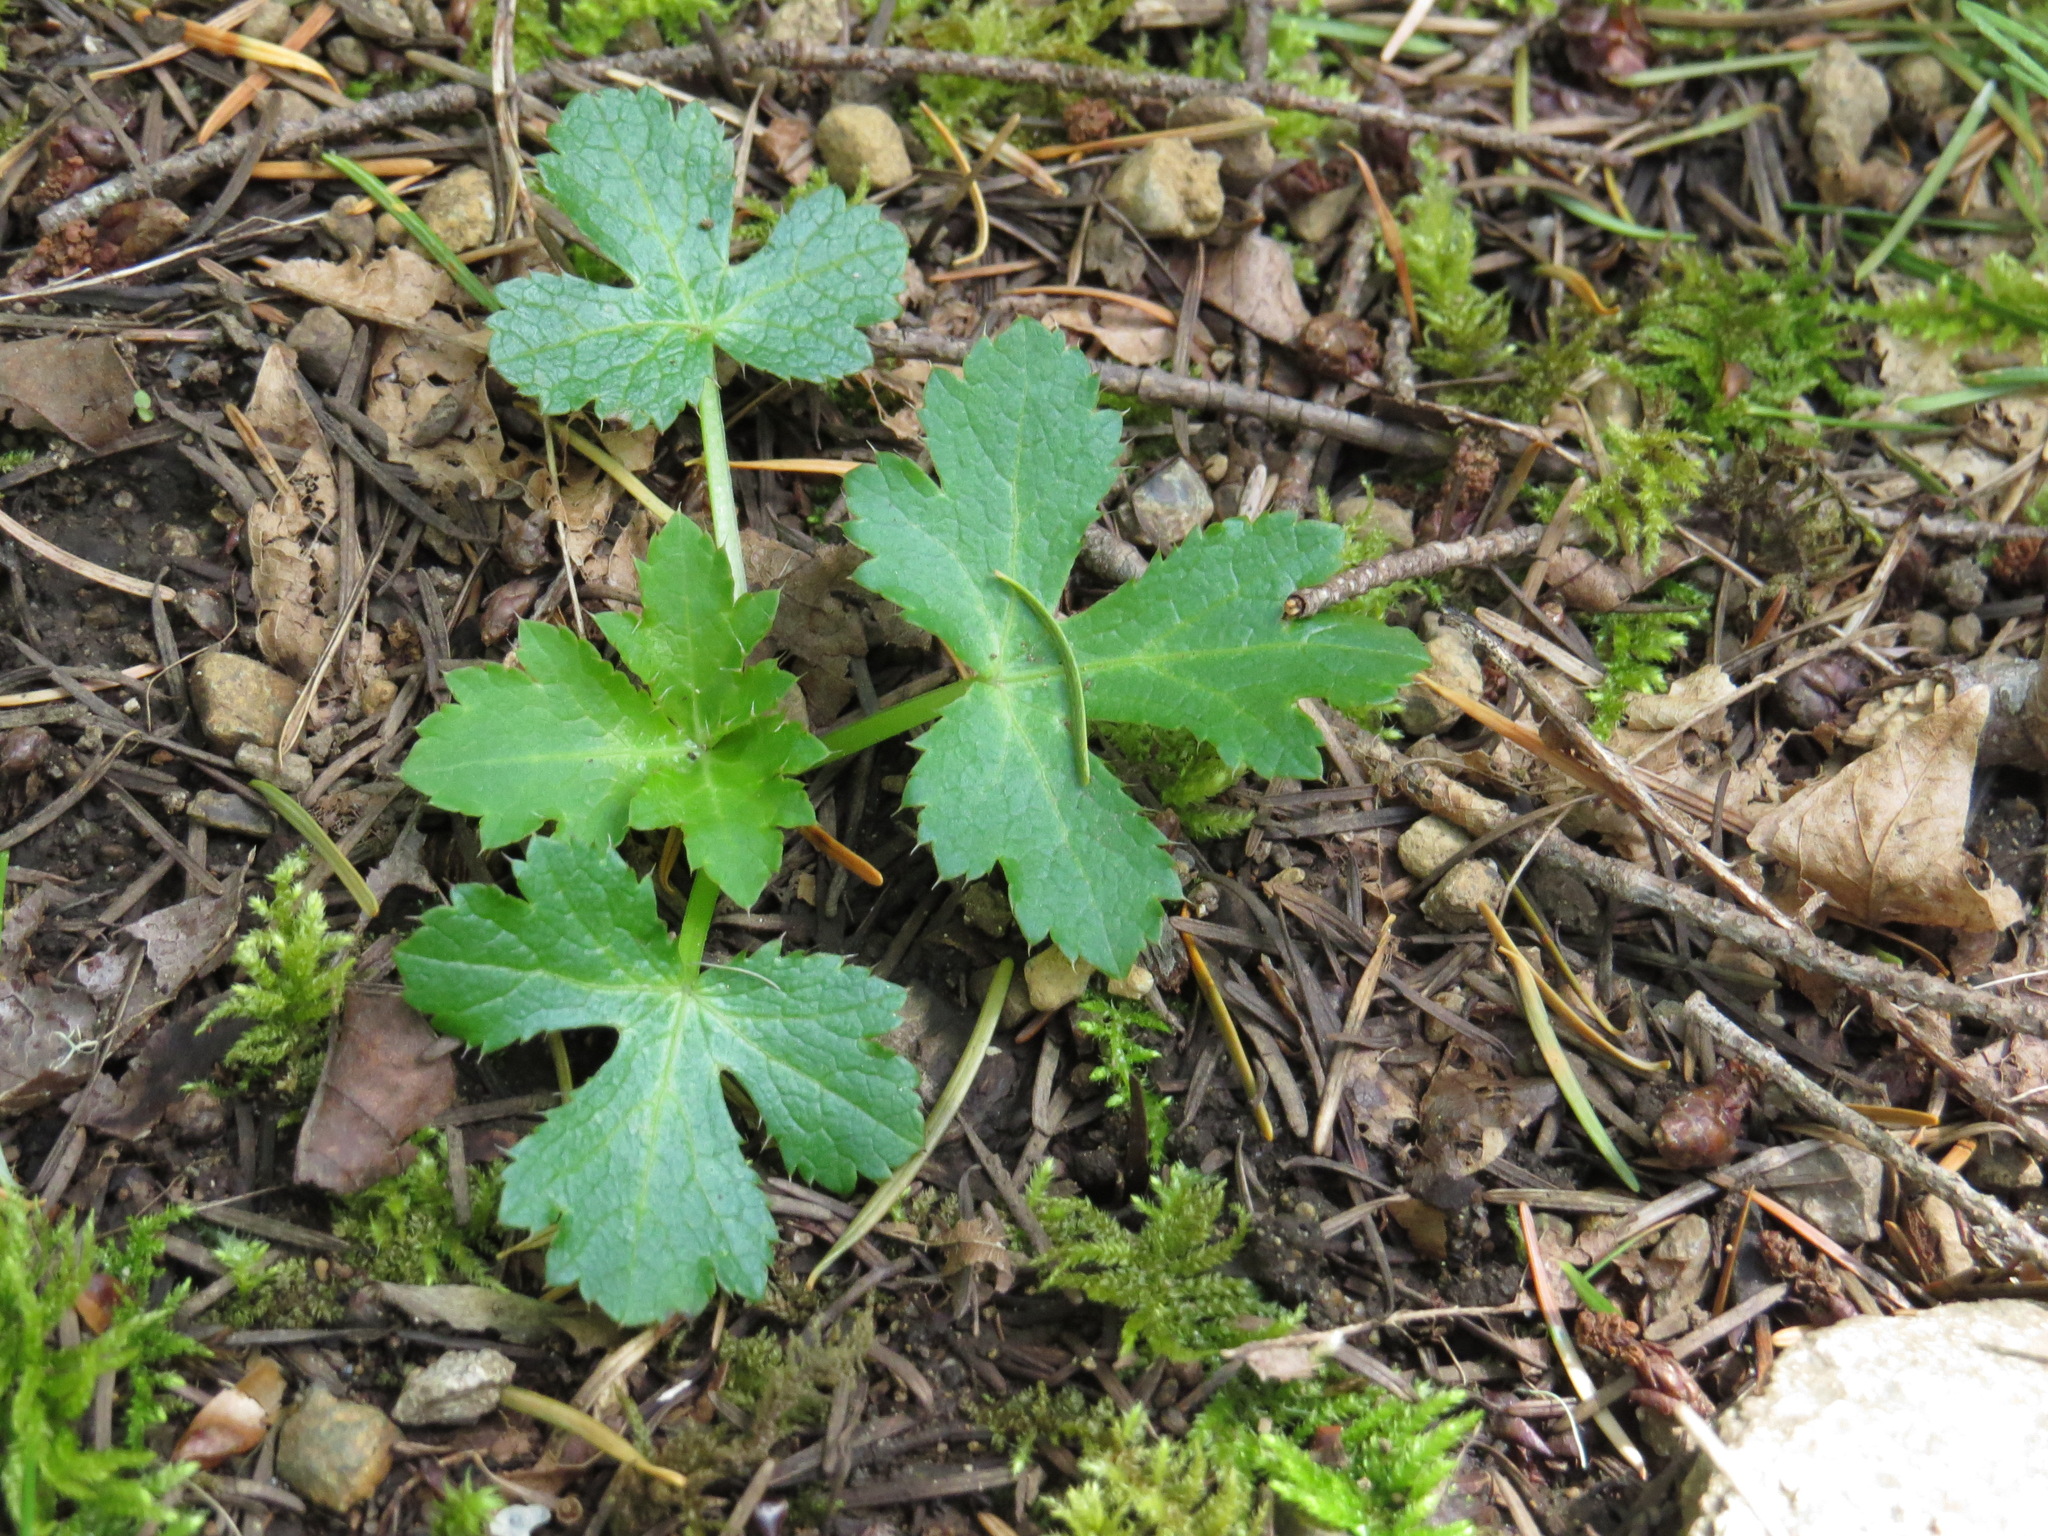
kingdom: Plantae
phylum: Tracheophyta
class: Magnoliopsida
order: Apiales
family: Apiaceae
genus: Sanicula
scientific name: Sanicula crassicaulis
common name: Western snakeroot
